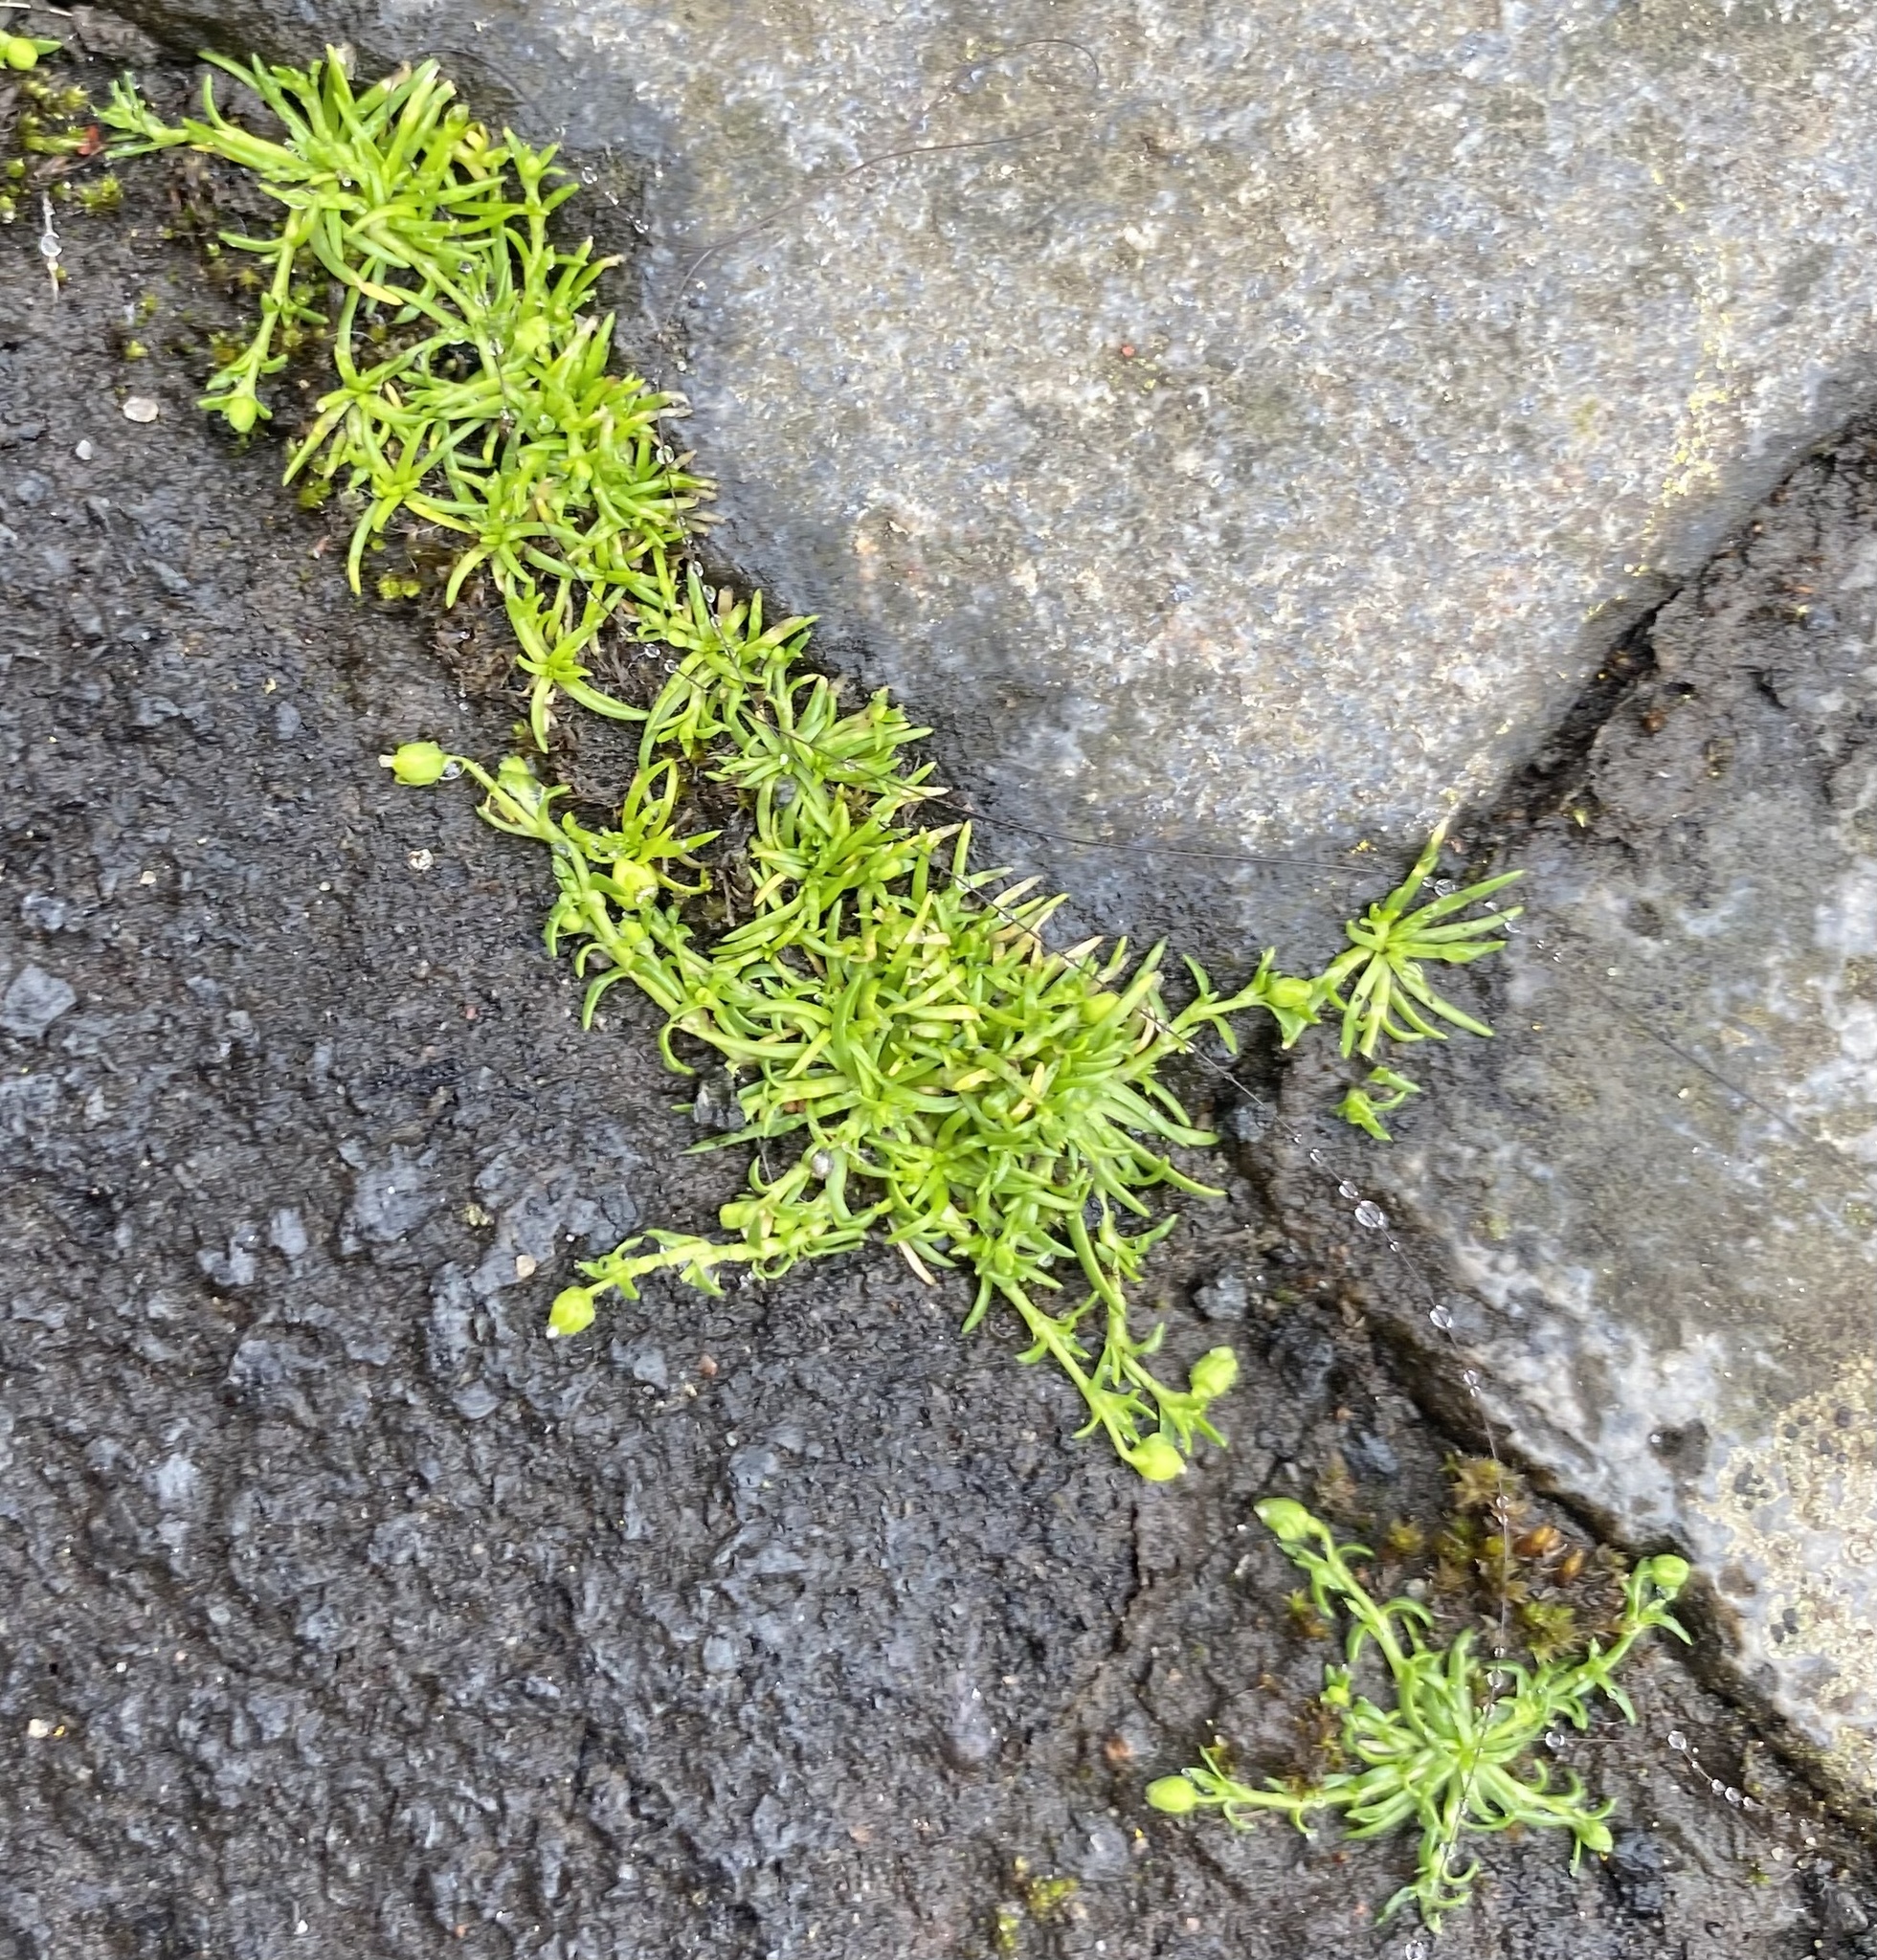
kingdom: Plantae
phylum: Tracheophyta
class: Magnoliopsida
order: Caryophyllales
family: Caryophyllaceae
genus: Sagina
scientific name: Sagina procumbens
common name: Procumbent pearlwort
